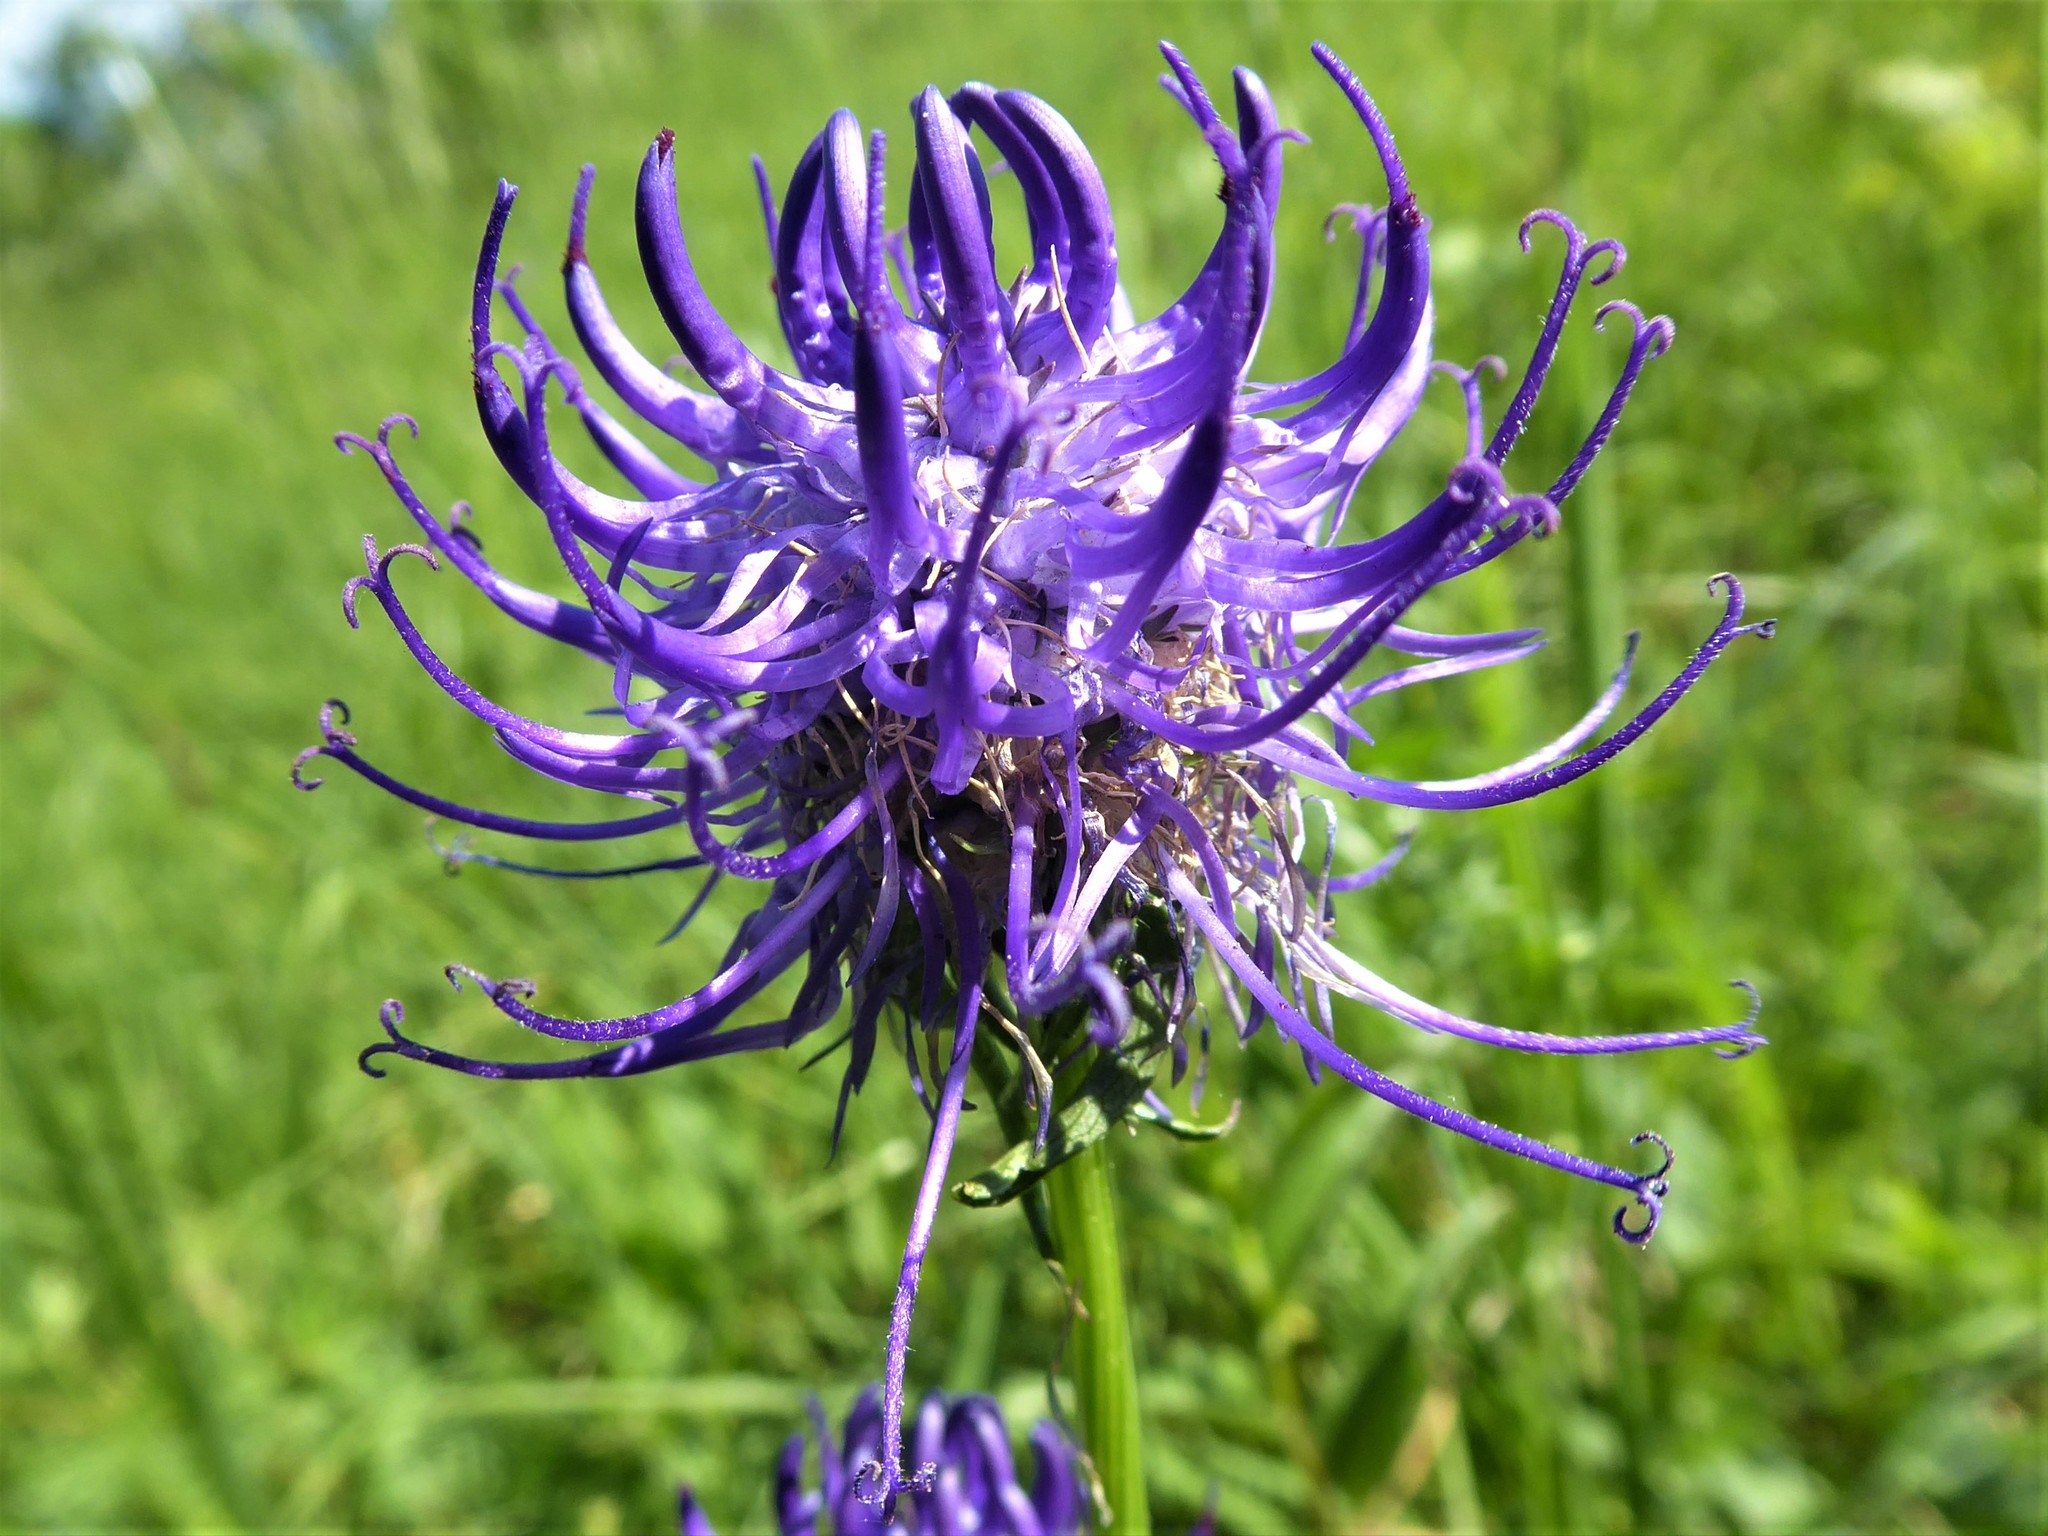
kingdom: Plantae
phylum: Tracheophyta
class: Magnoliopsida
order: Asterales
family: Campanulaceae
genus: Phyteuma
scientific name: Phyteuma orbiculare
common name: Round-headed rampion
